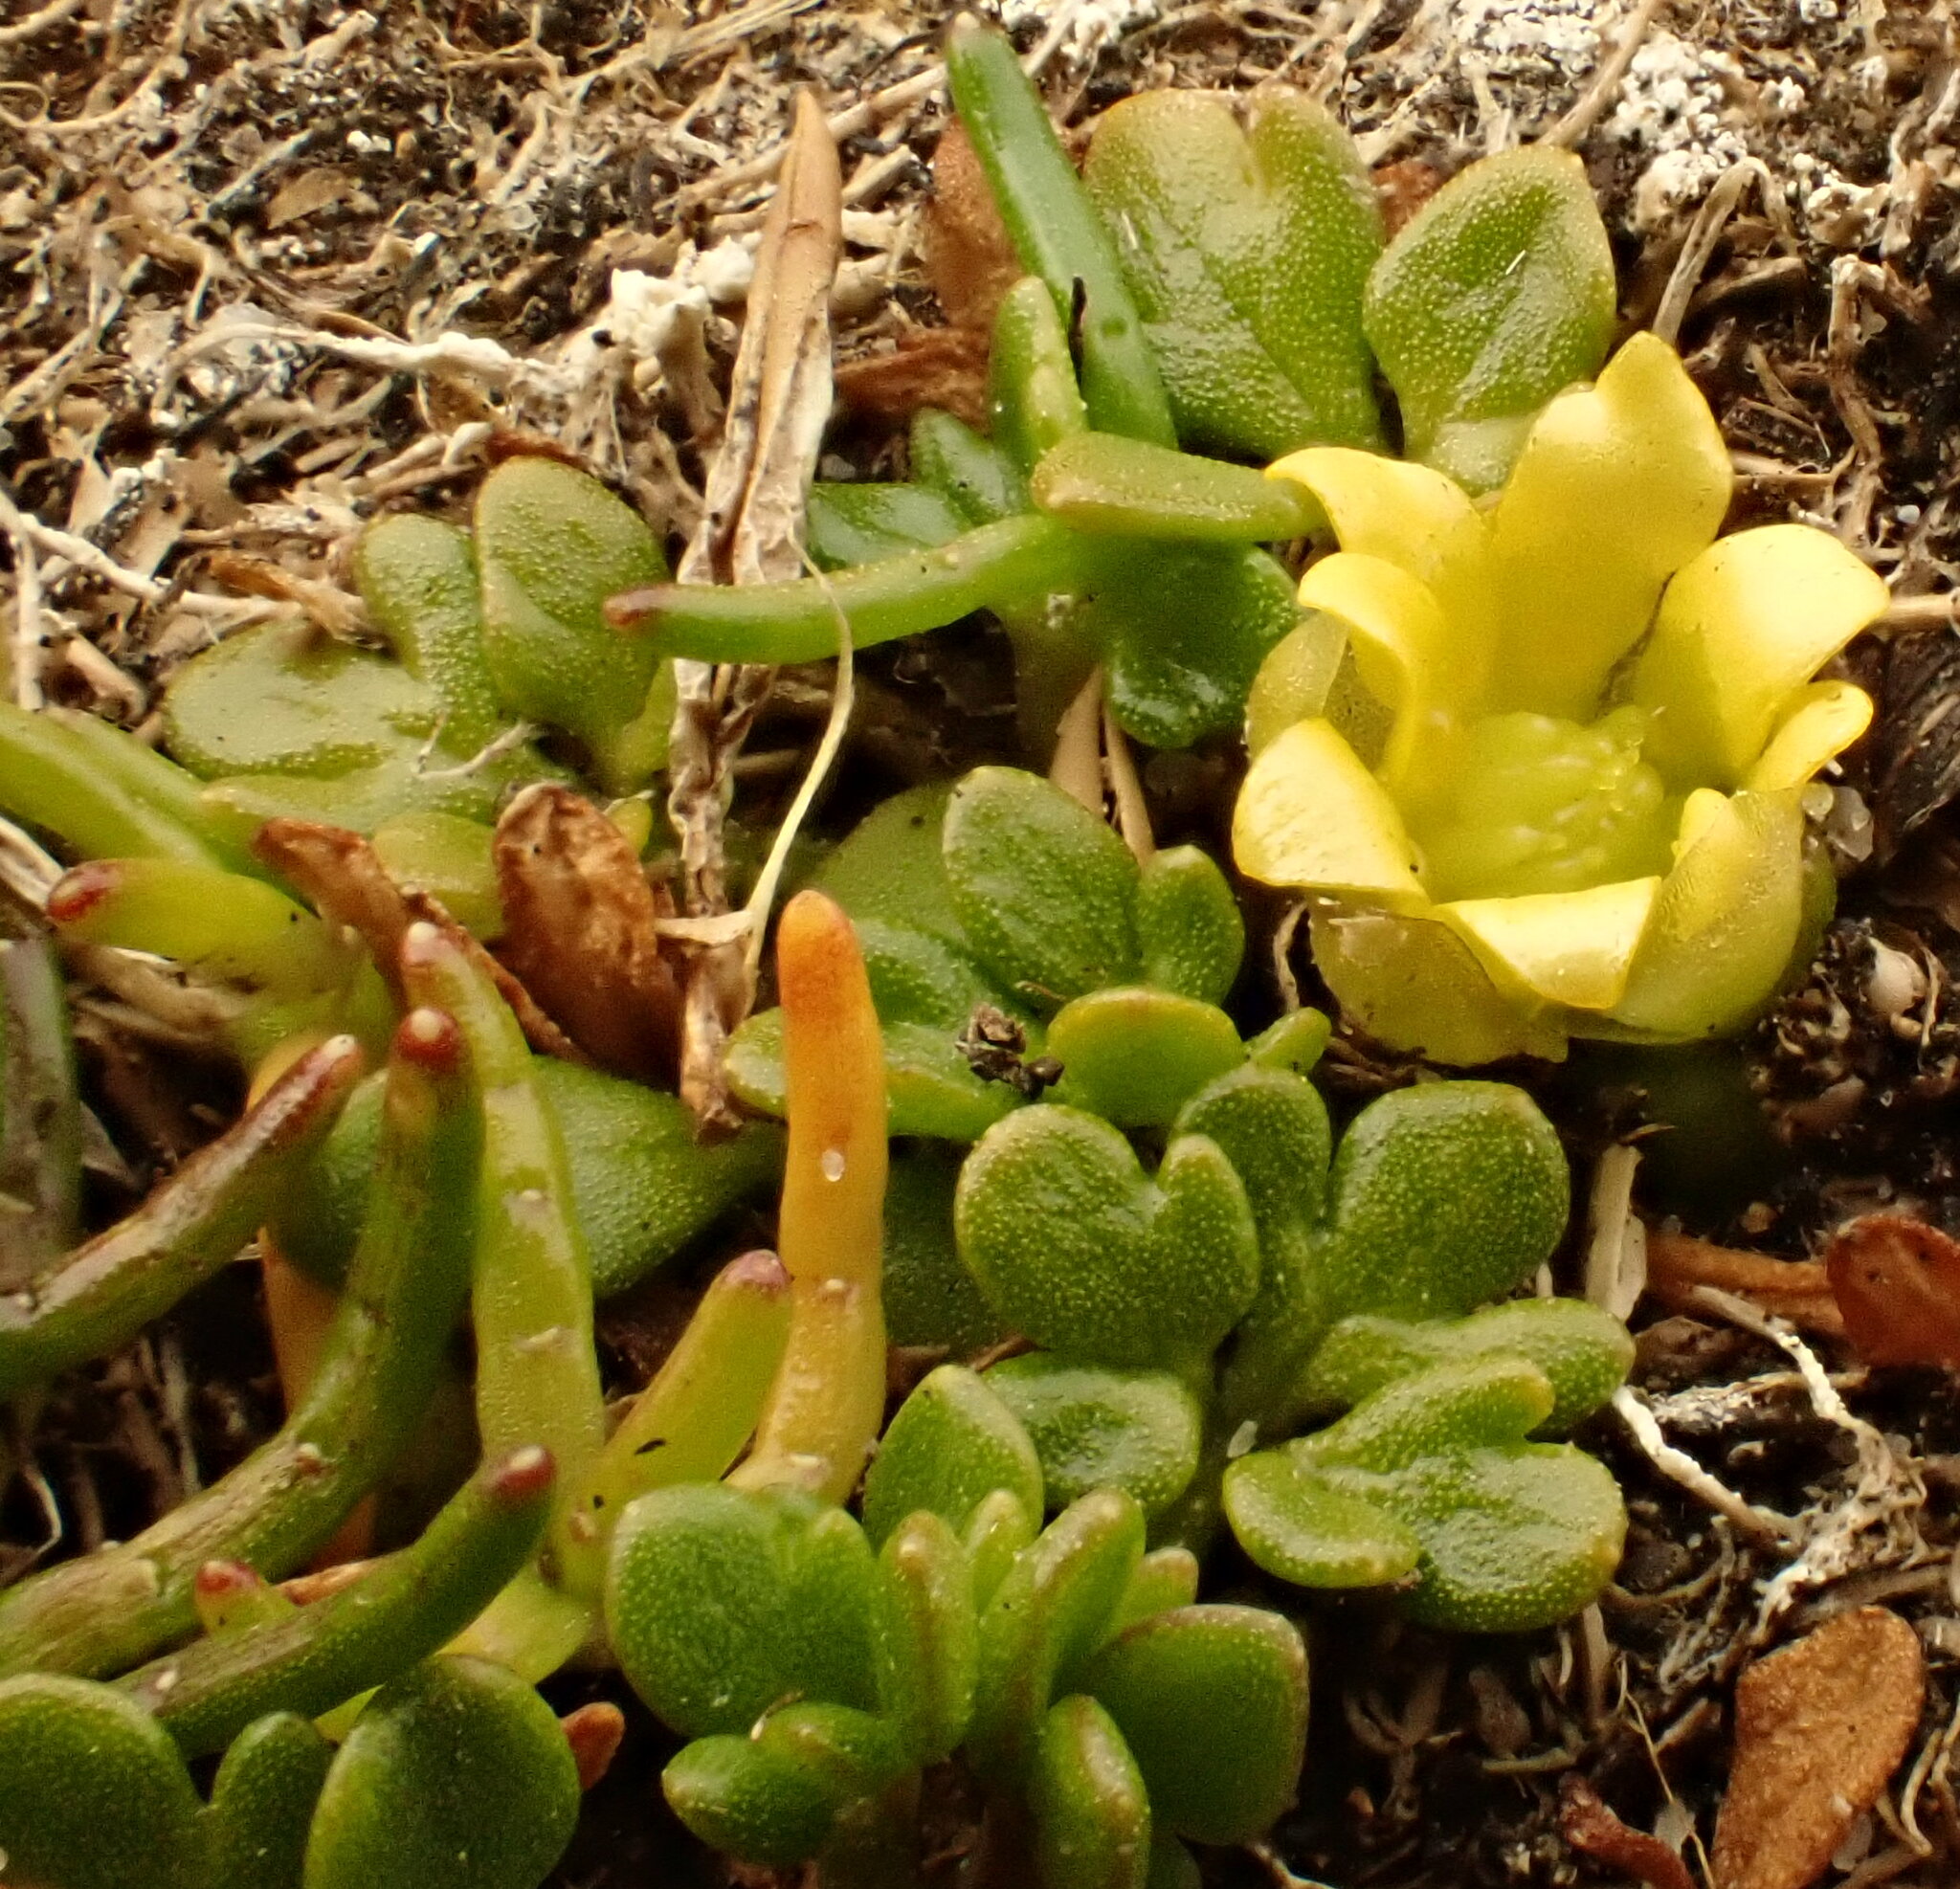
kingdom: Plantae
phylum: Tracheophyta
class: Magnoliopsida
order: Ranunculales
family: Ranunculaceae
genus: Ranunculus
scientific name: Ranunculus acaulis
